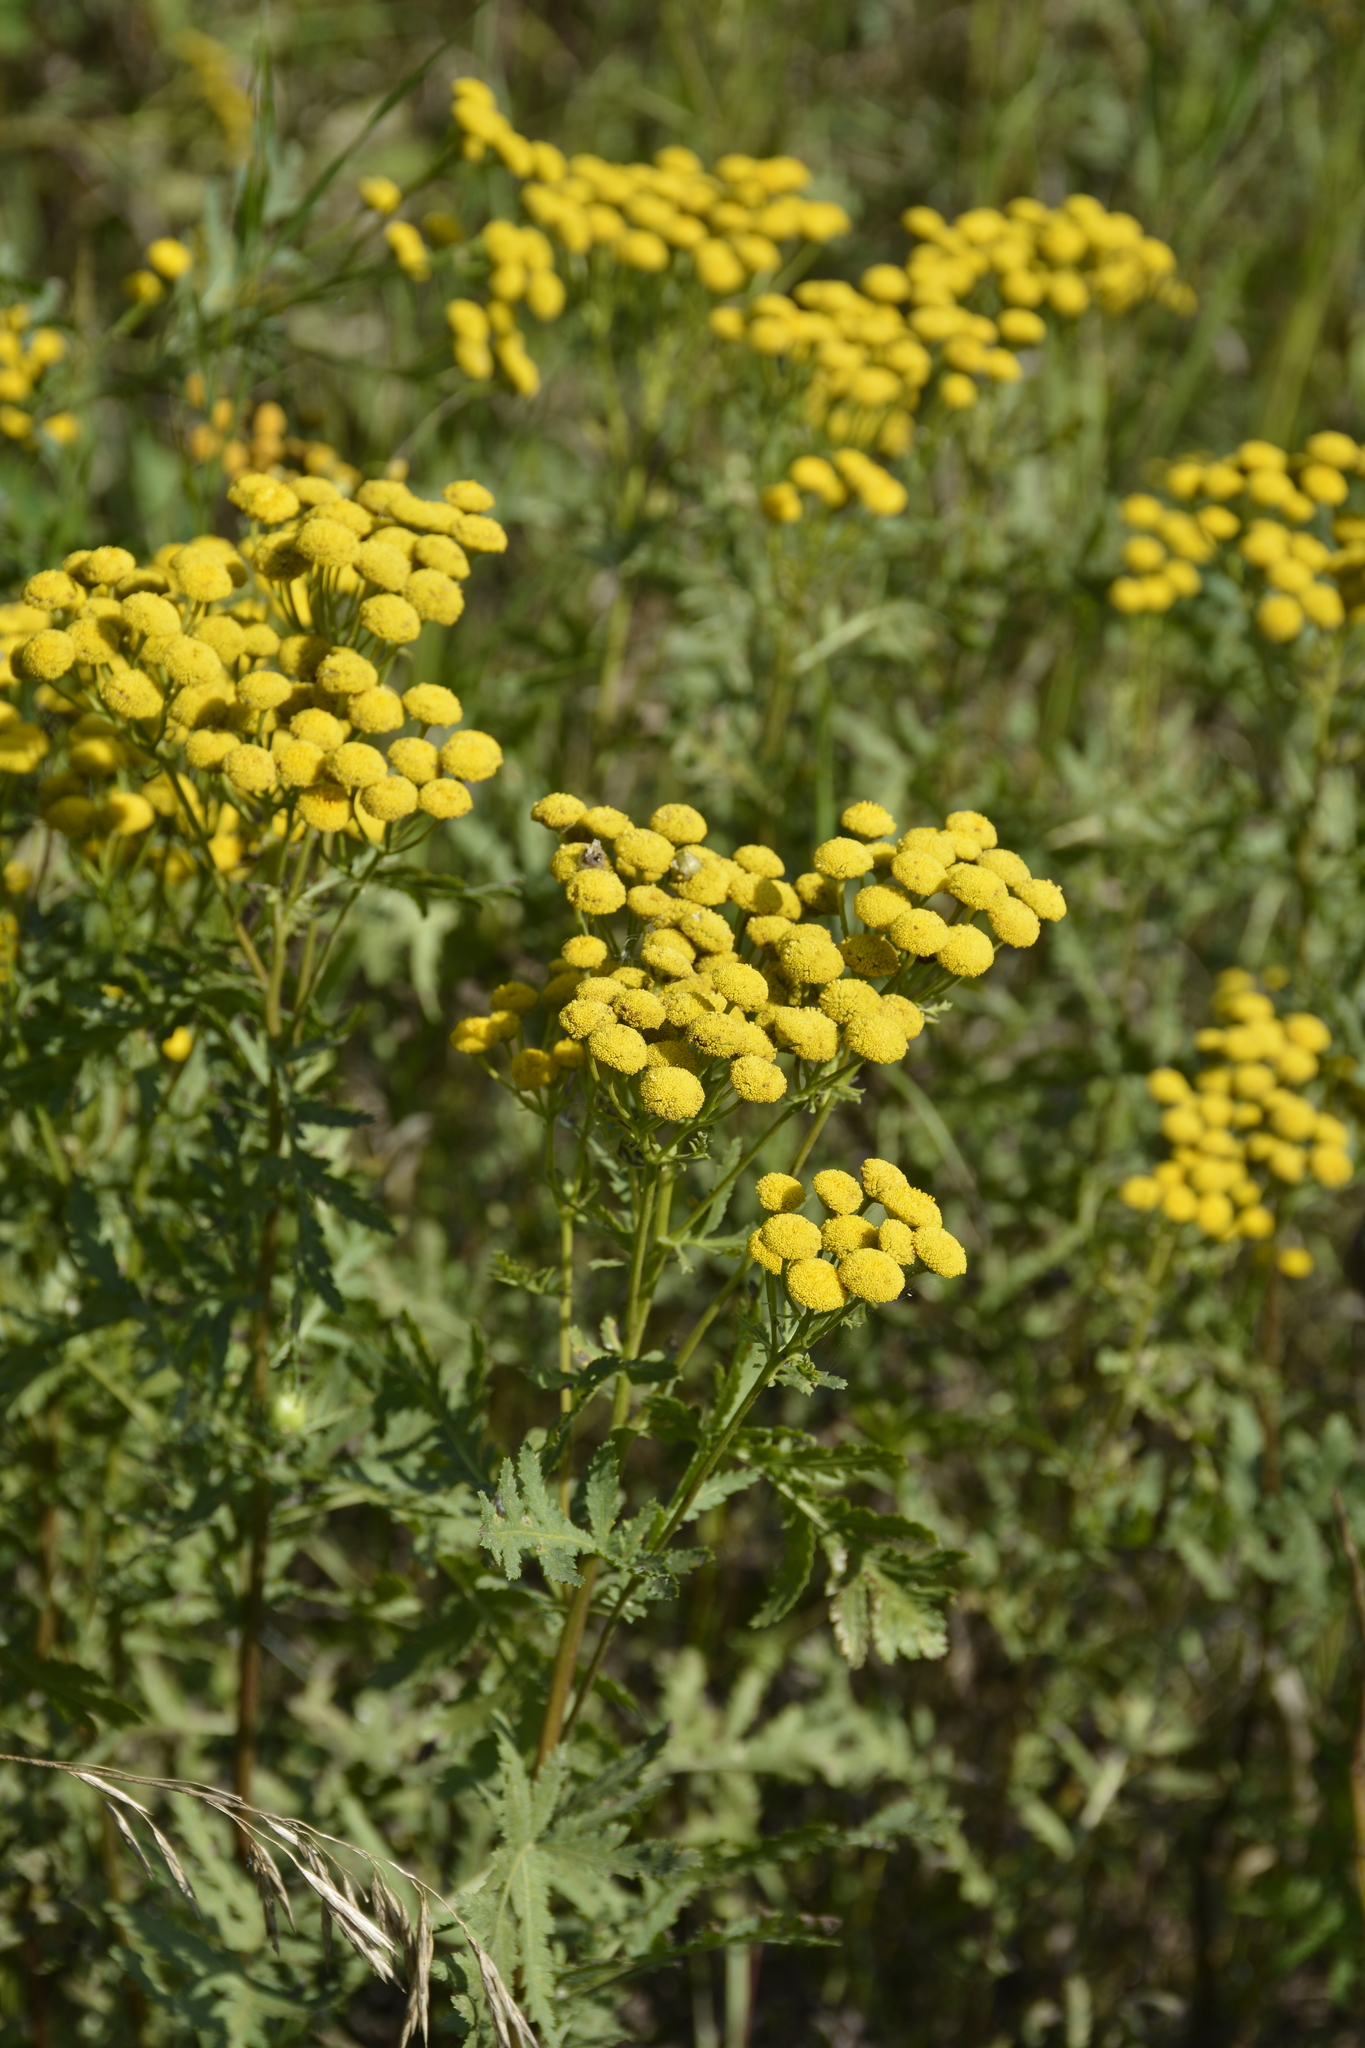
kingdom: Plantae
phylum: Tracheophyta
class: Magnoliopsida
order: Asterales
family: Asteraceae
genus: Tanacetum
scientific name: Tanacetum vulgare
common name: Common tansy
